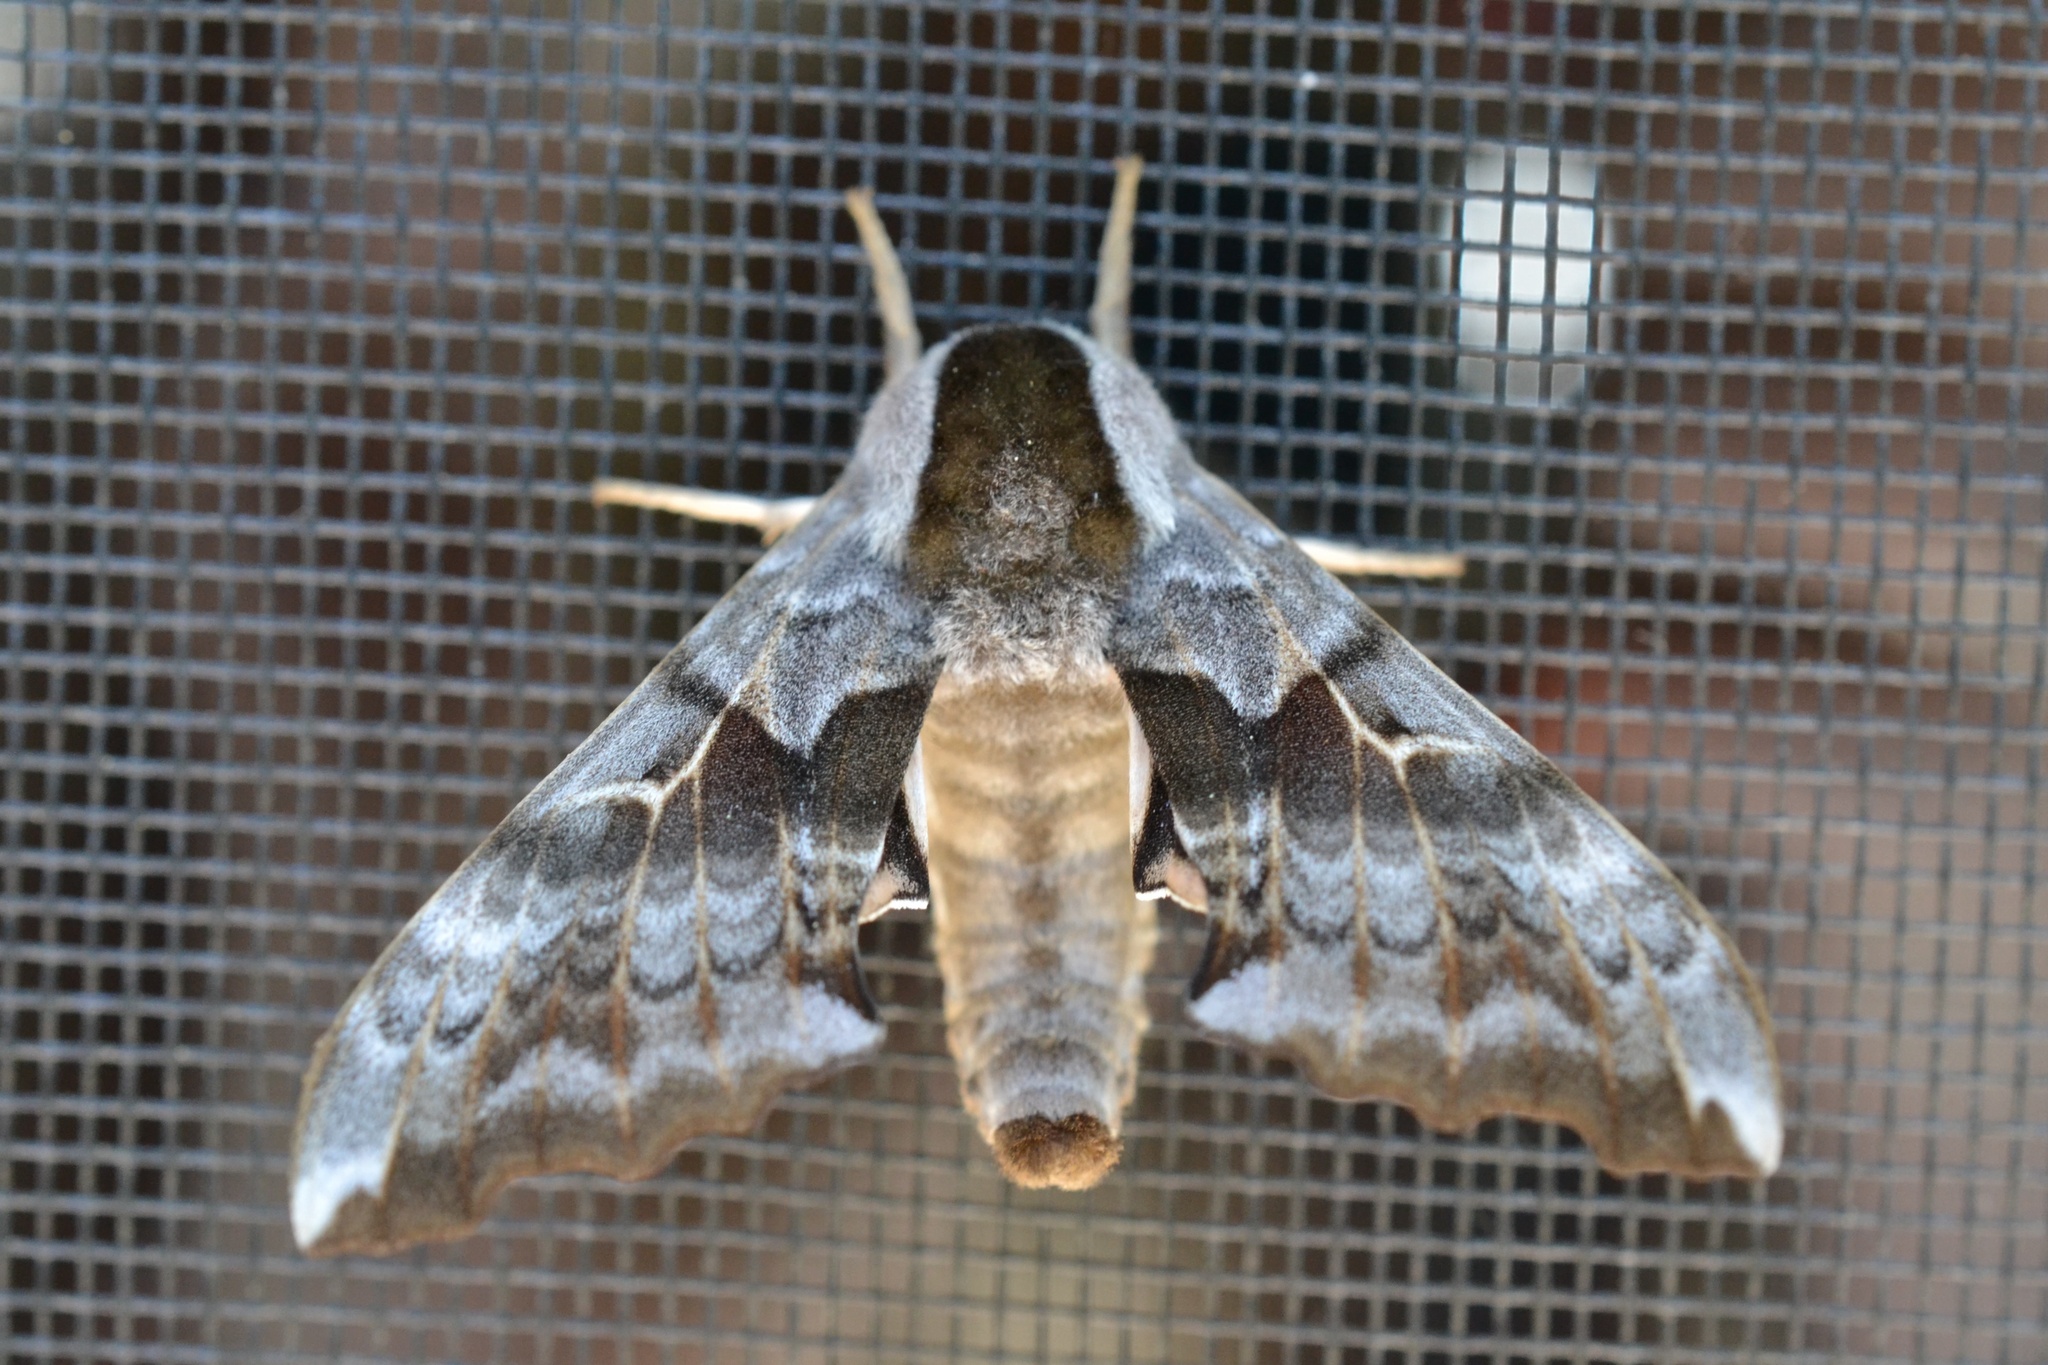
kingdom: Animalia
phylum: Arthropoda
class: Insecta
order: Lepidoptera
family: Sphingidae
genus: Smerinthus
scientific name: Smerinthus cerisyi
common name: Cerisy's sphinx moth
